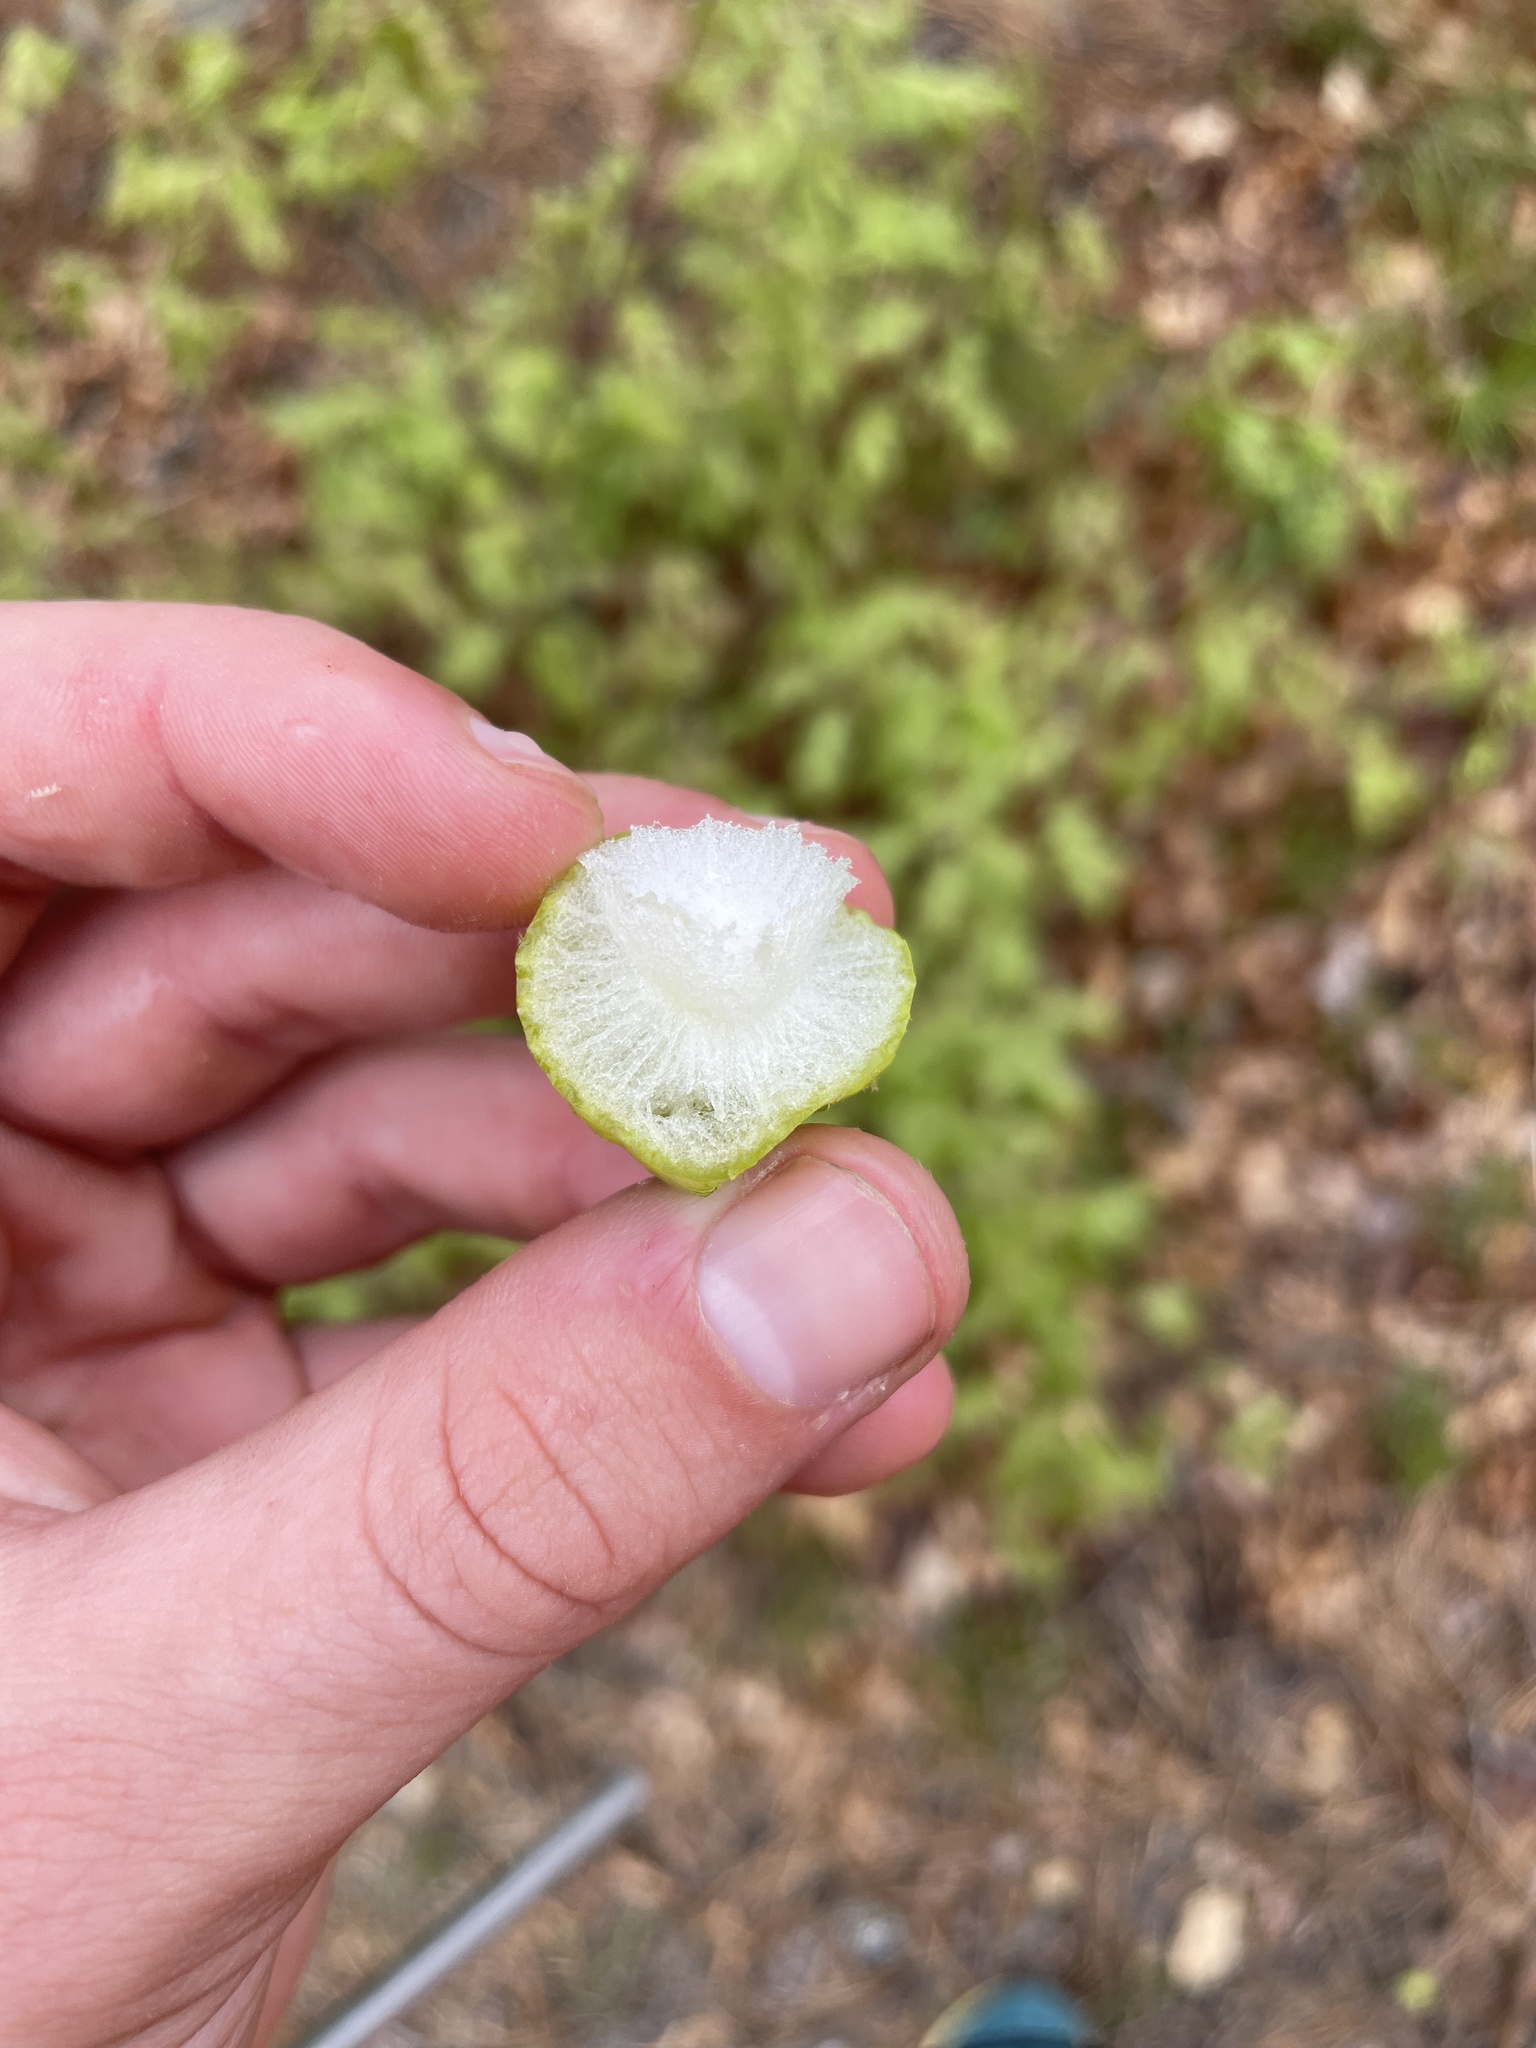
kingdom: Animalia
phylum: Arthropoda
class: Insecta
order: Hymenoptera
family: Cynipidae
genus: Amphibolips
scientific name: Amphibolips
